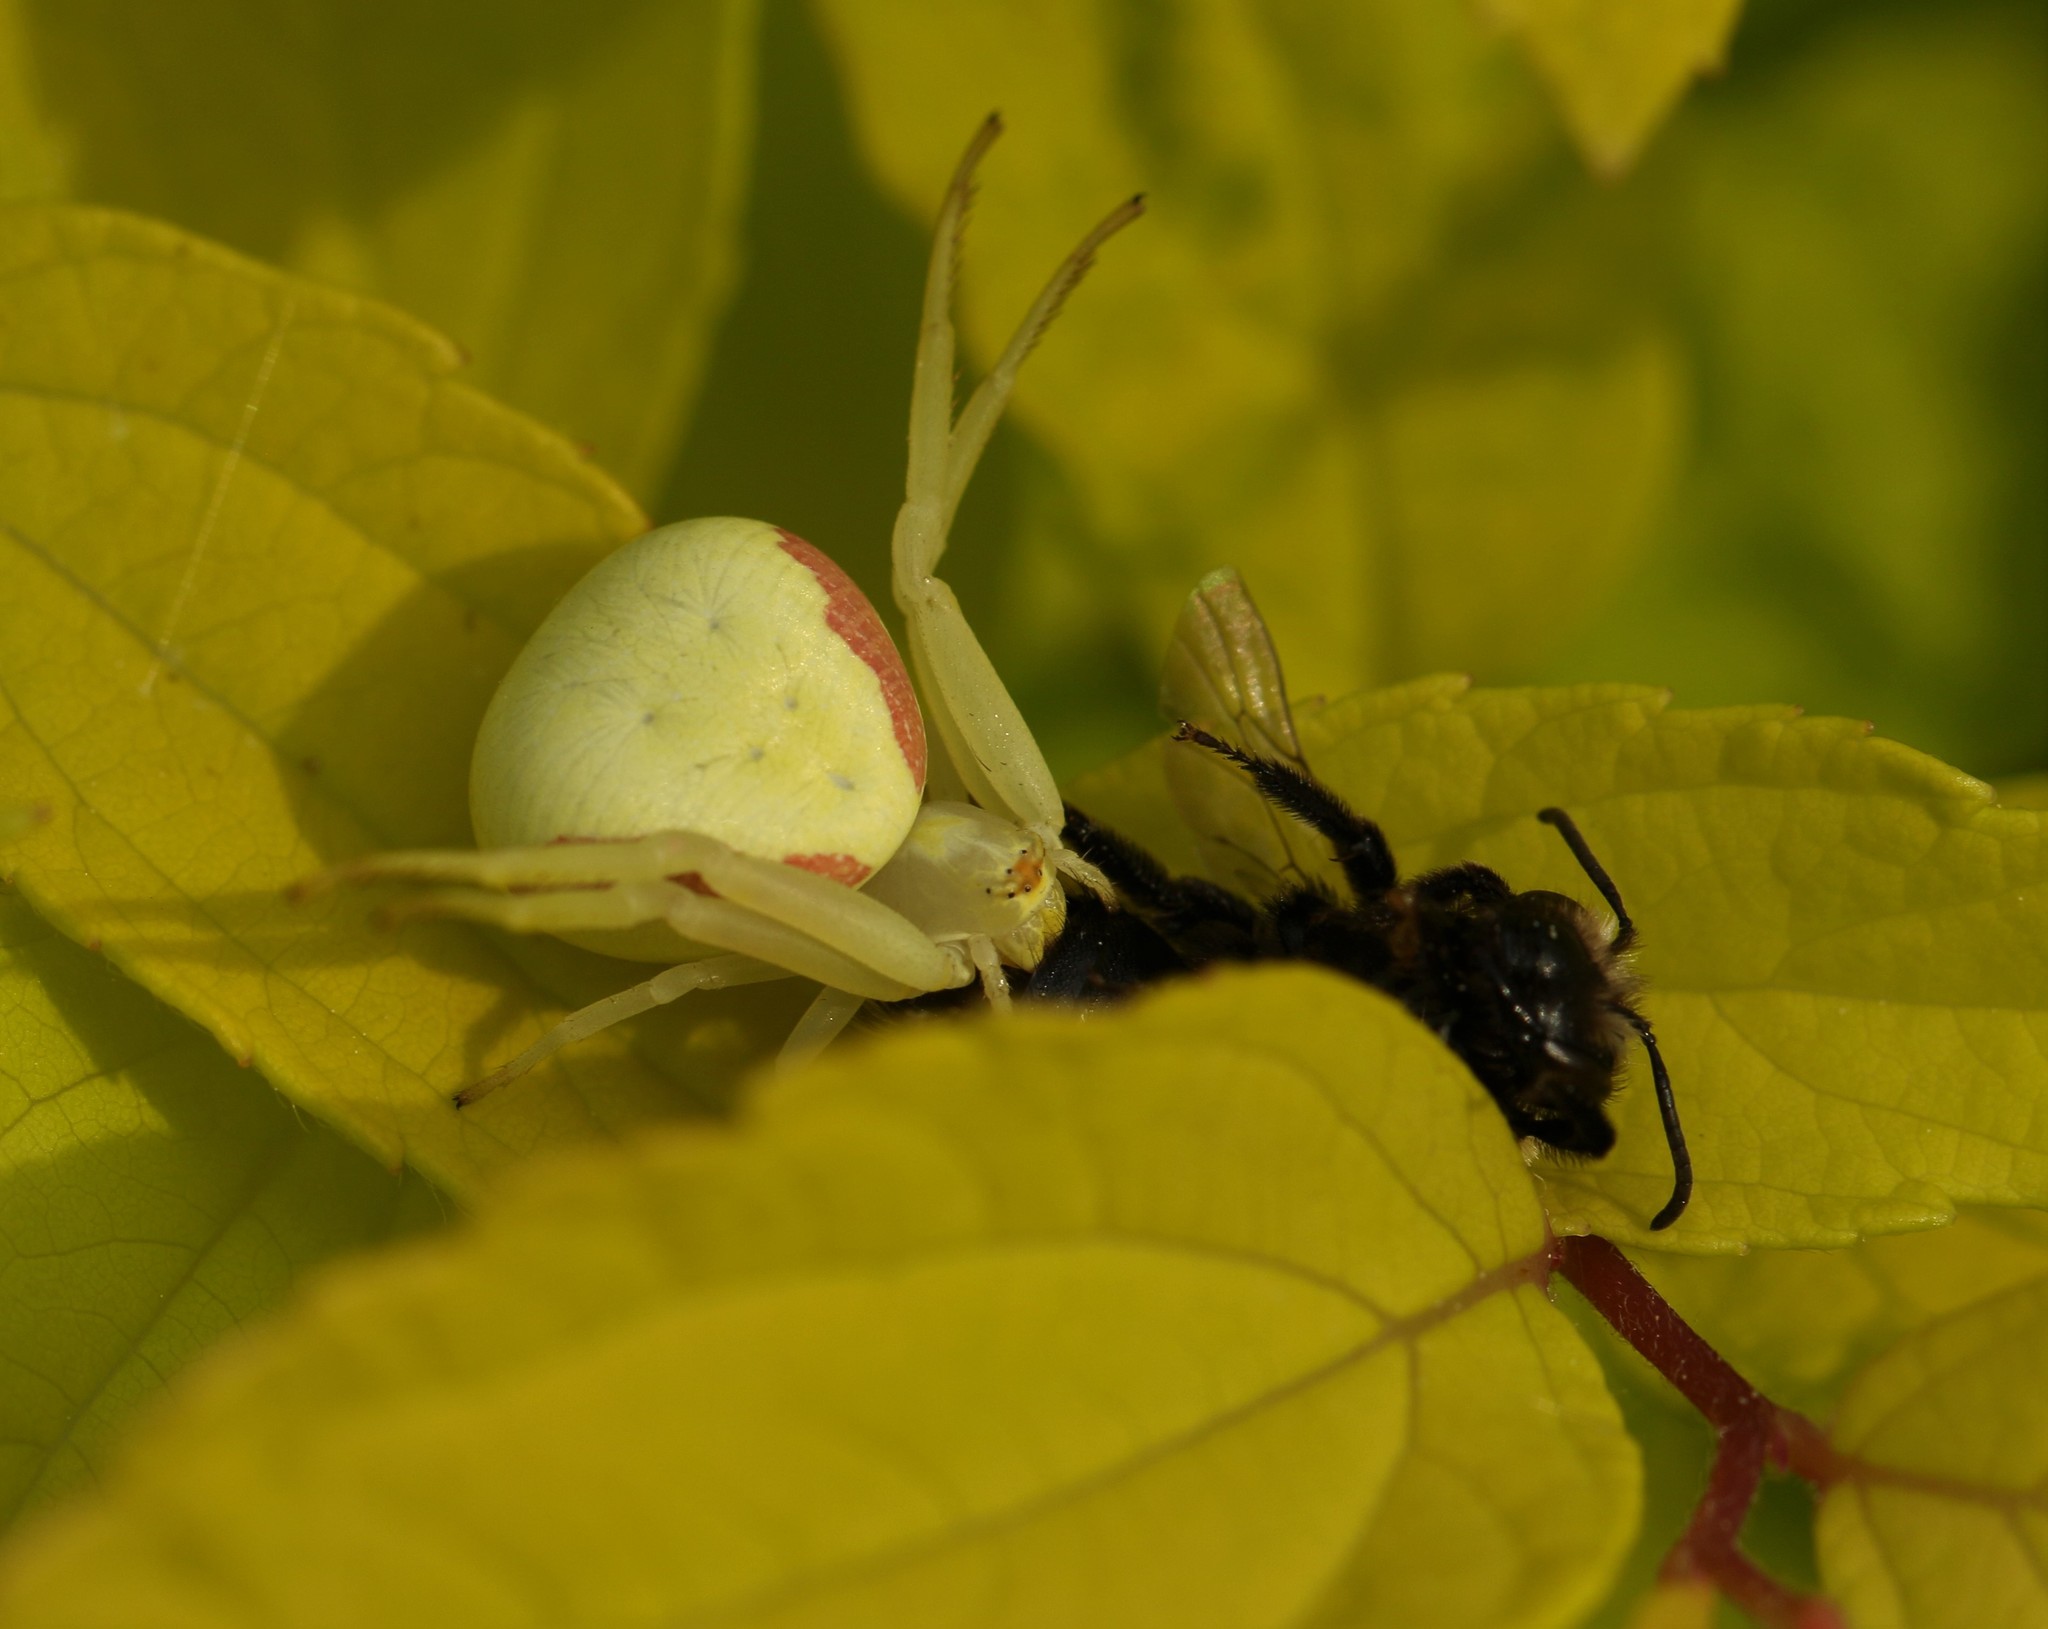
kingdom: Animalia
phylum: Arthropoda
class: Arachnida
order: Araneae
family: Thomisidae
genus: Misumena
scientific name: Misumena vatia
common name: Goldenrod crab spider
